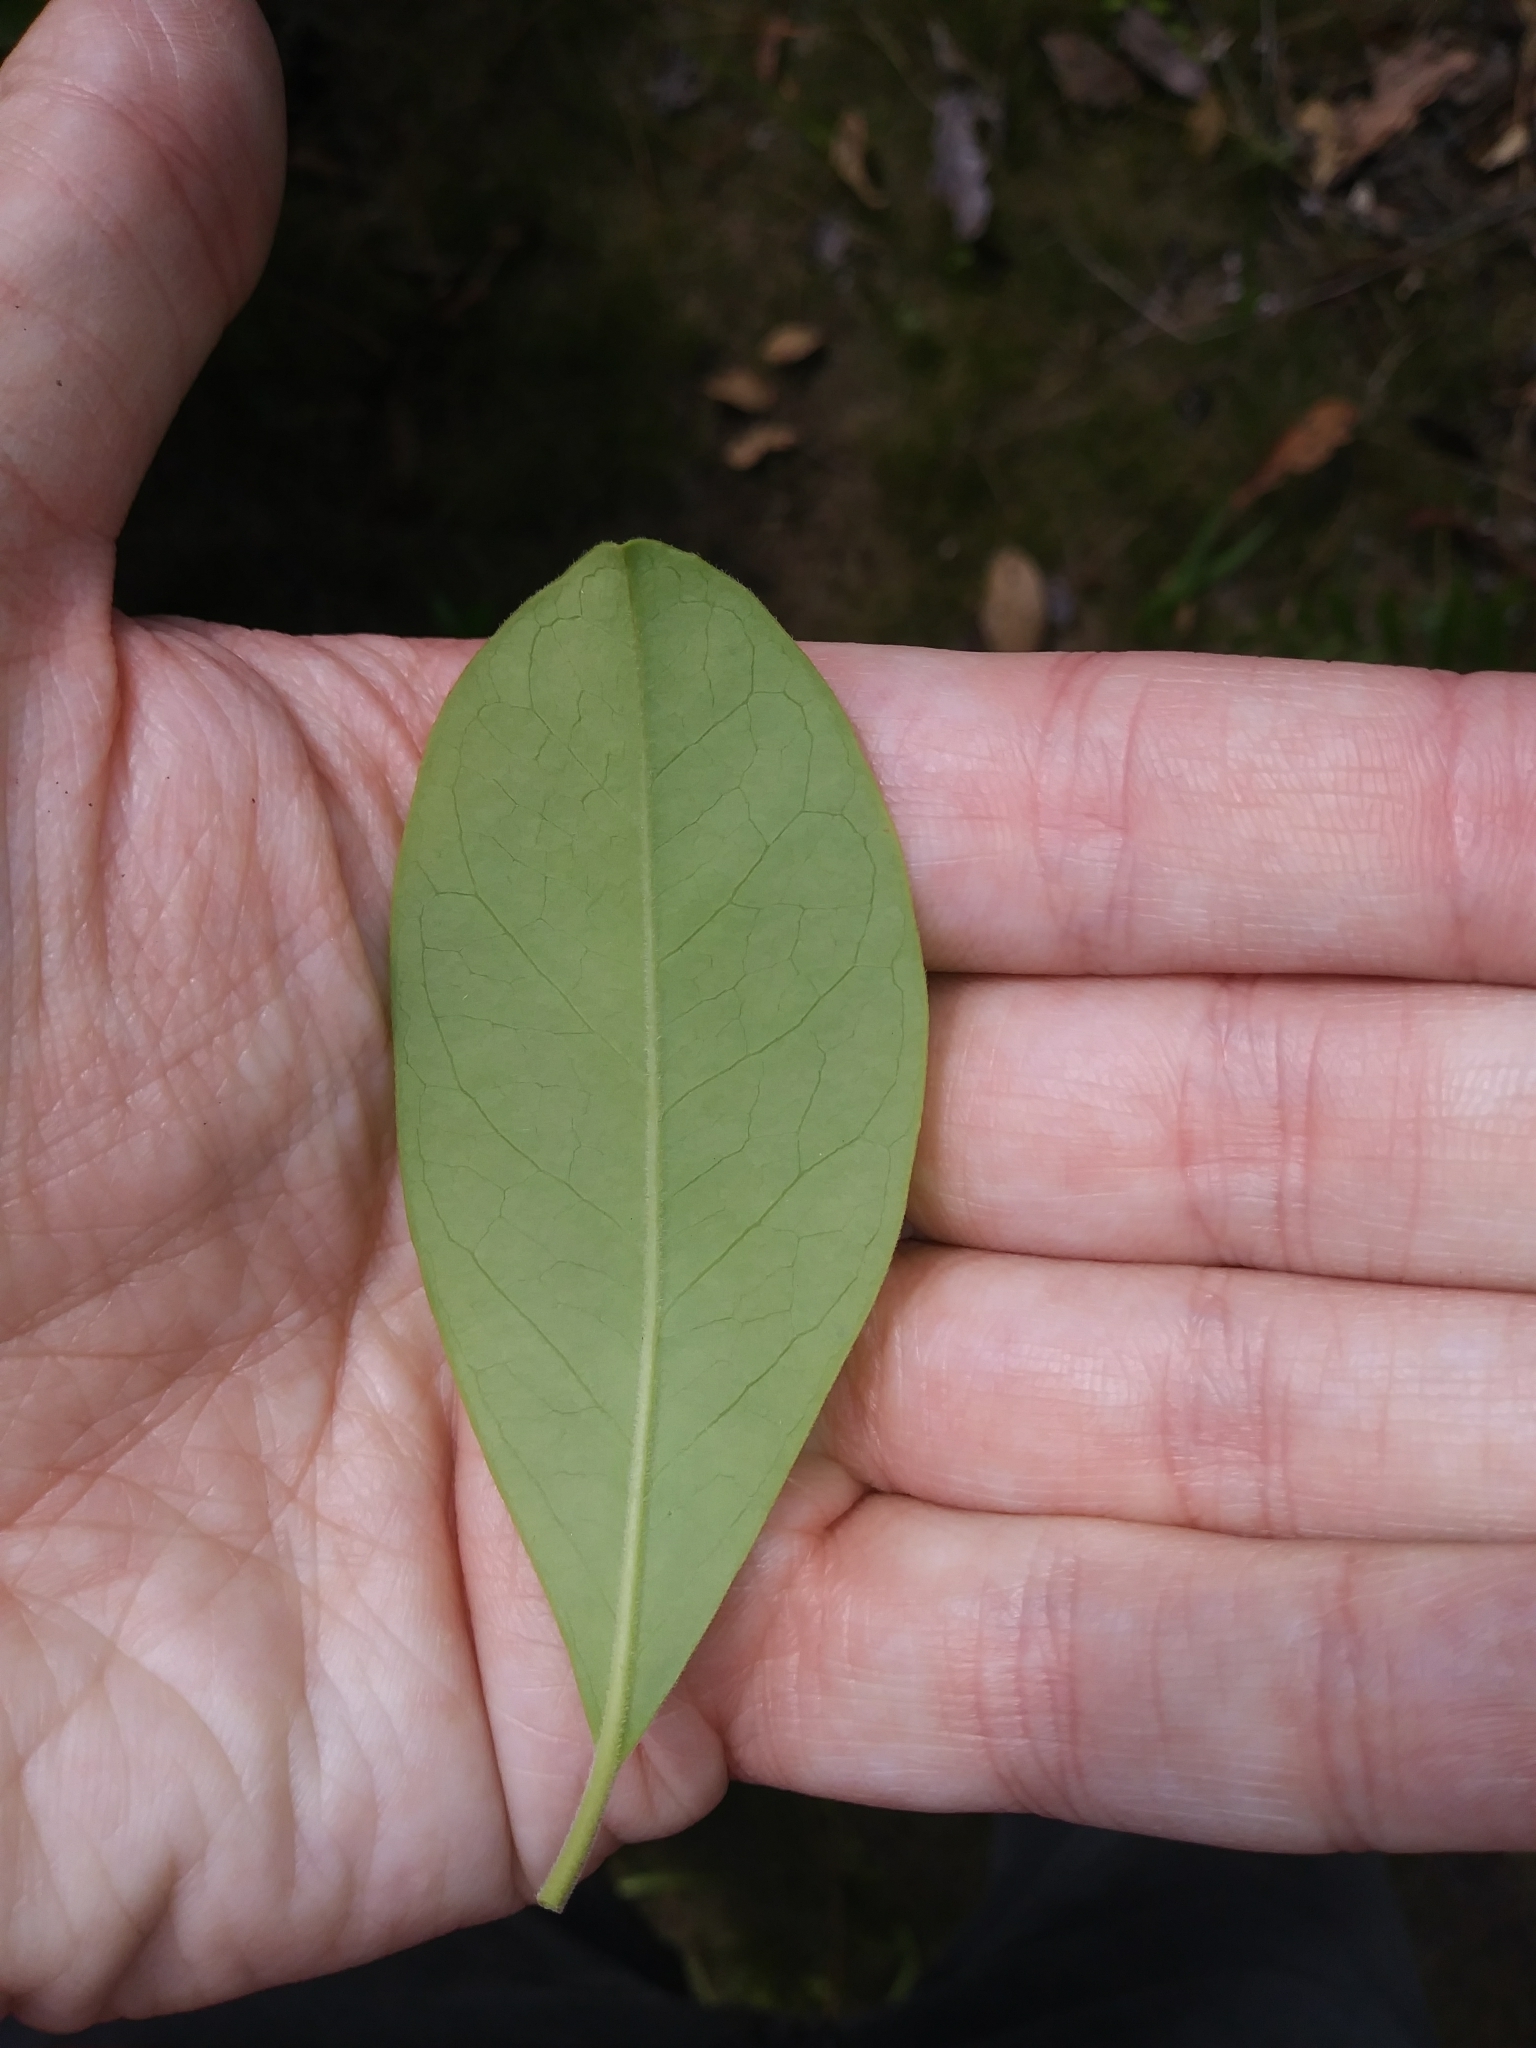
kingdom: Plantae
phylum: Tracheophyta
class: Magnoliopsida
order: Aquifoliales
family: Aquifoliaceae
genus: Ilex
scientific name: Ilex cassine
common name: Dahoon
